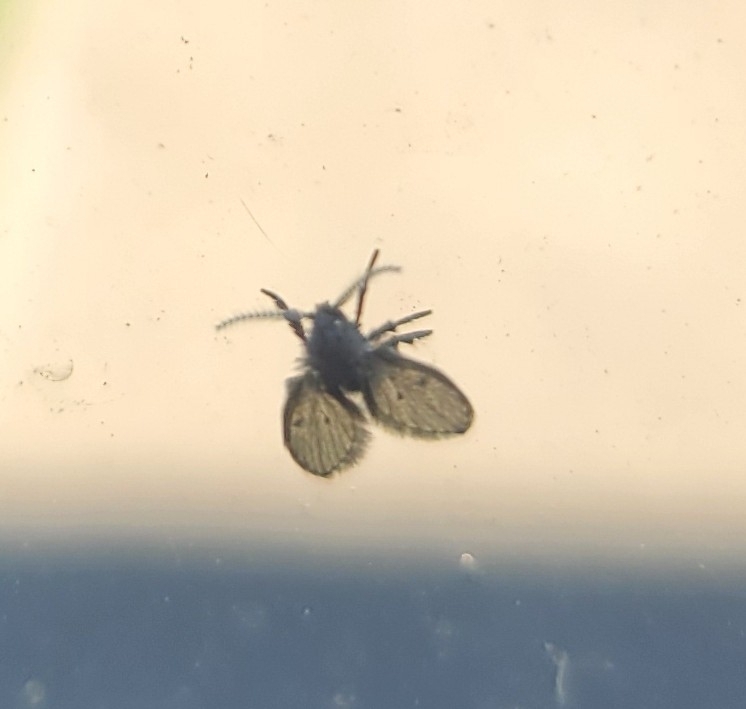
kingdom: Animalia
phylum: Arthropoda
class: Insecta
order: Diptera
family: Psychodidae
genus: Clogmia
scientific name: Clogmia albipunctatus
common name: White-spotted moth fly
